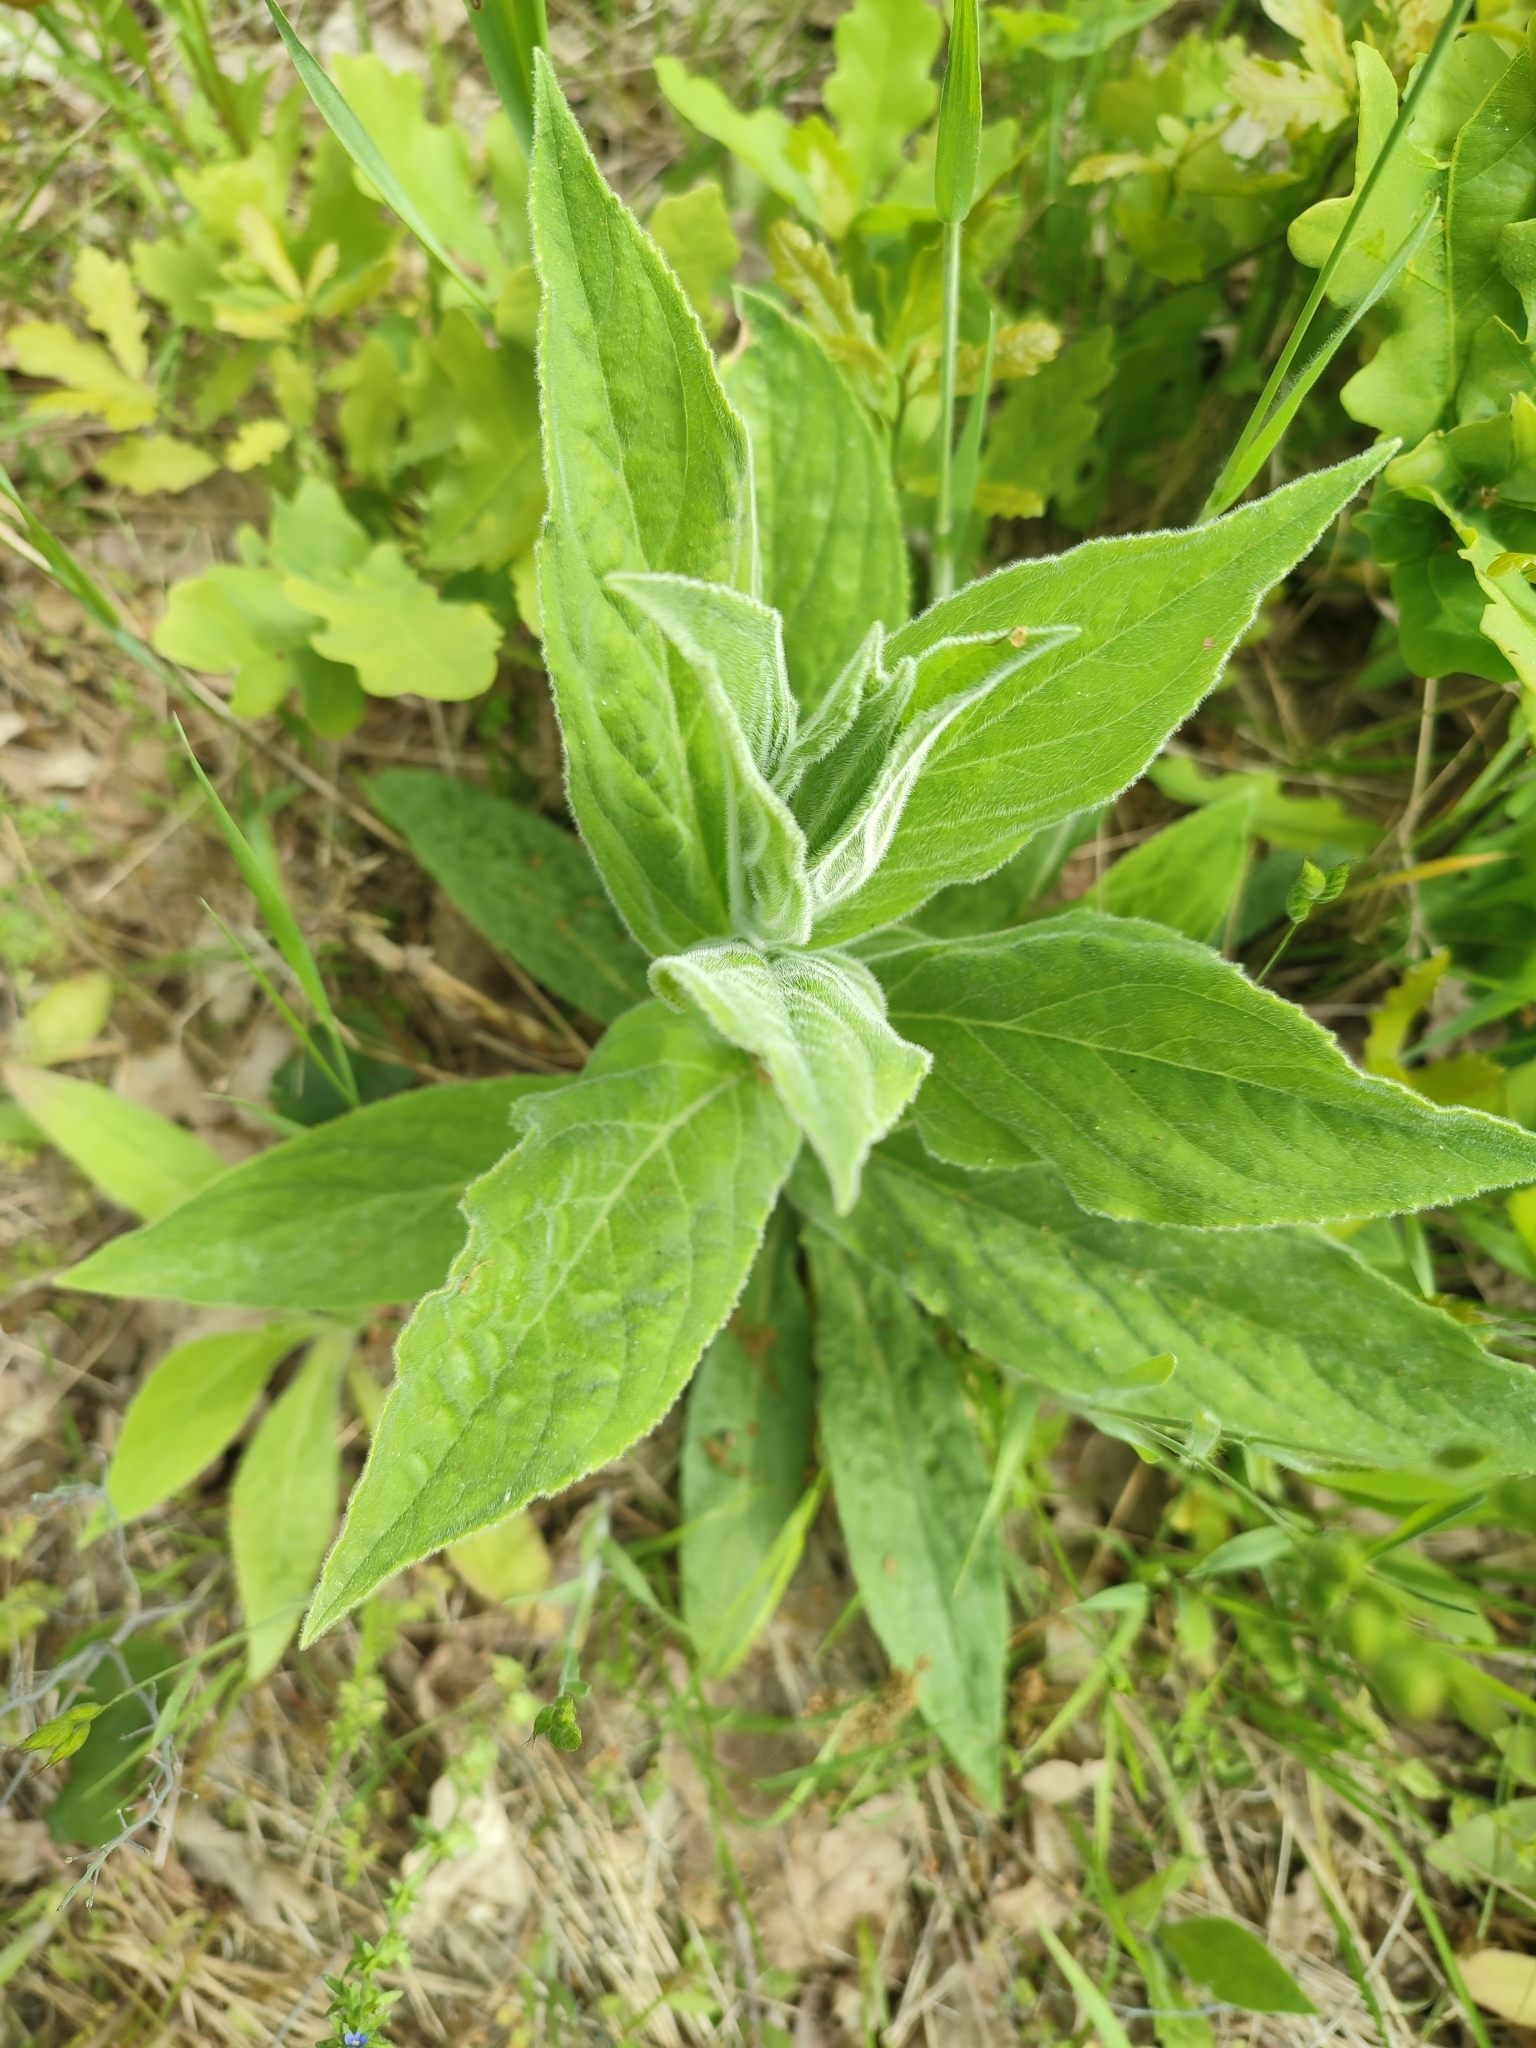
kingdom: Plantae
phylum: Tracheophyta
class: Magnoliopsida
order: Lamiales
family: Plantaginaceae
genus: Digitalis
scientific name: Digitalis grandiflora
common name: Yellow foxglove
